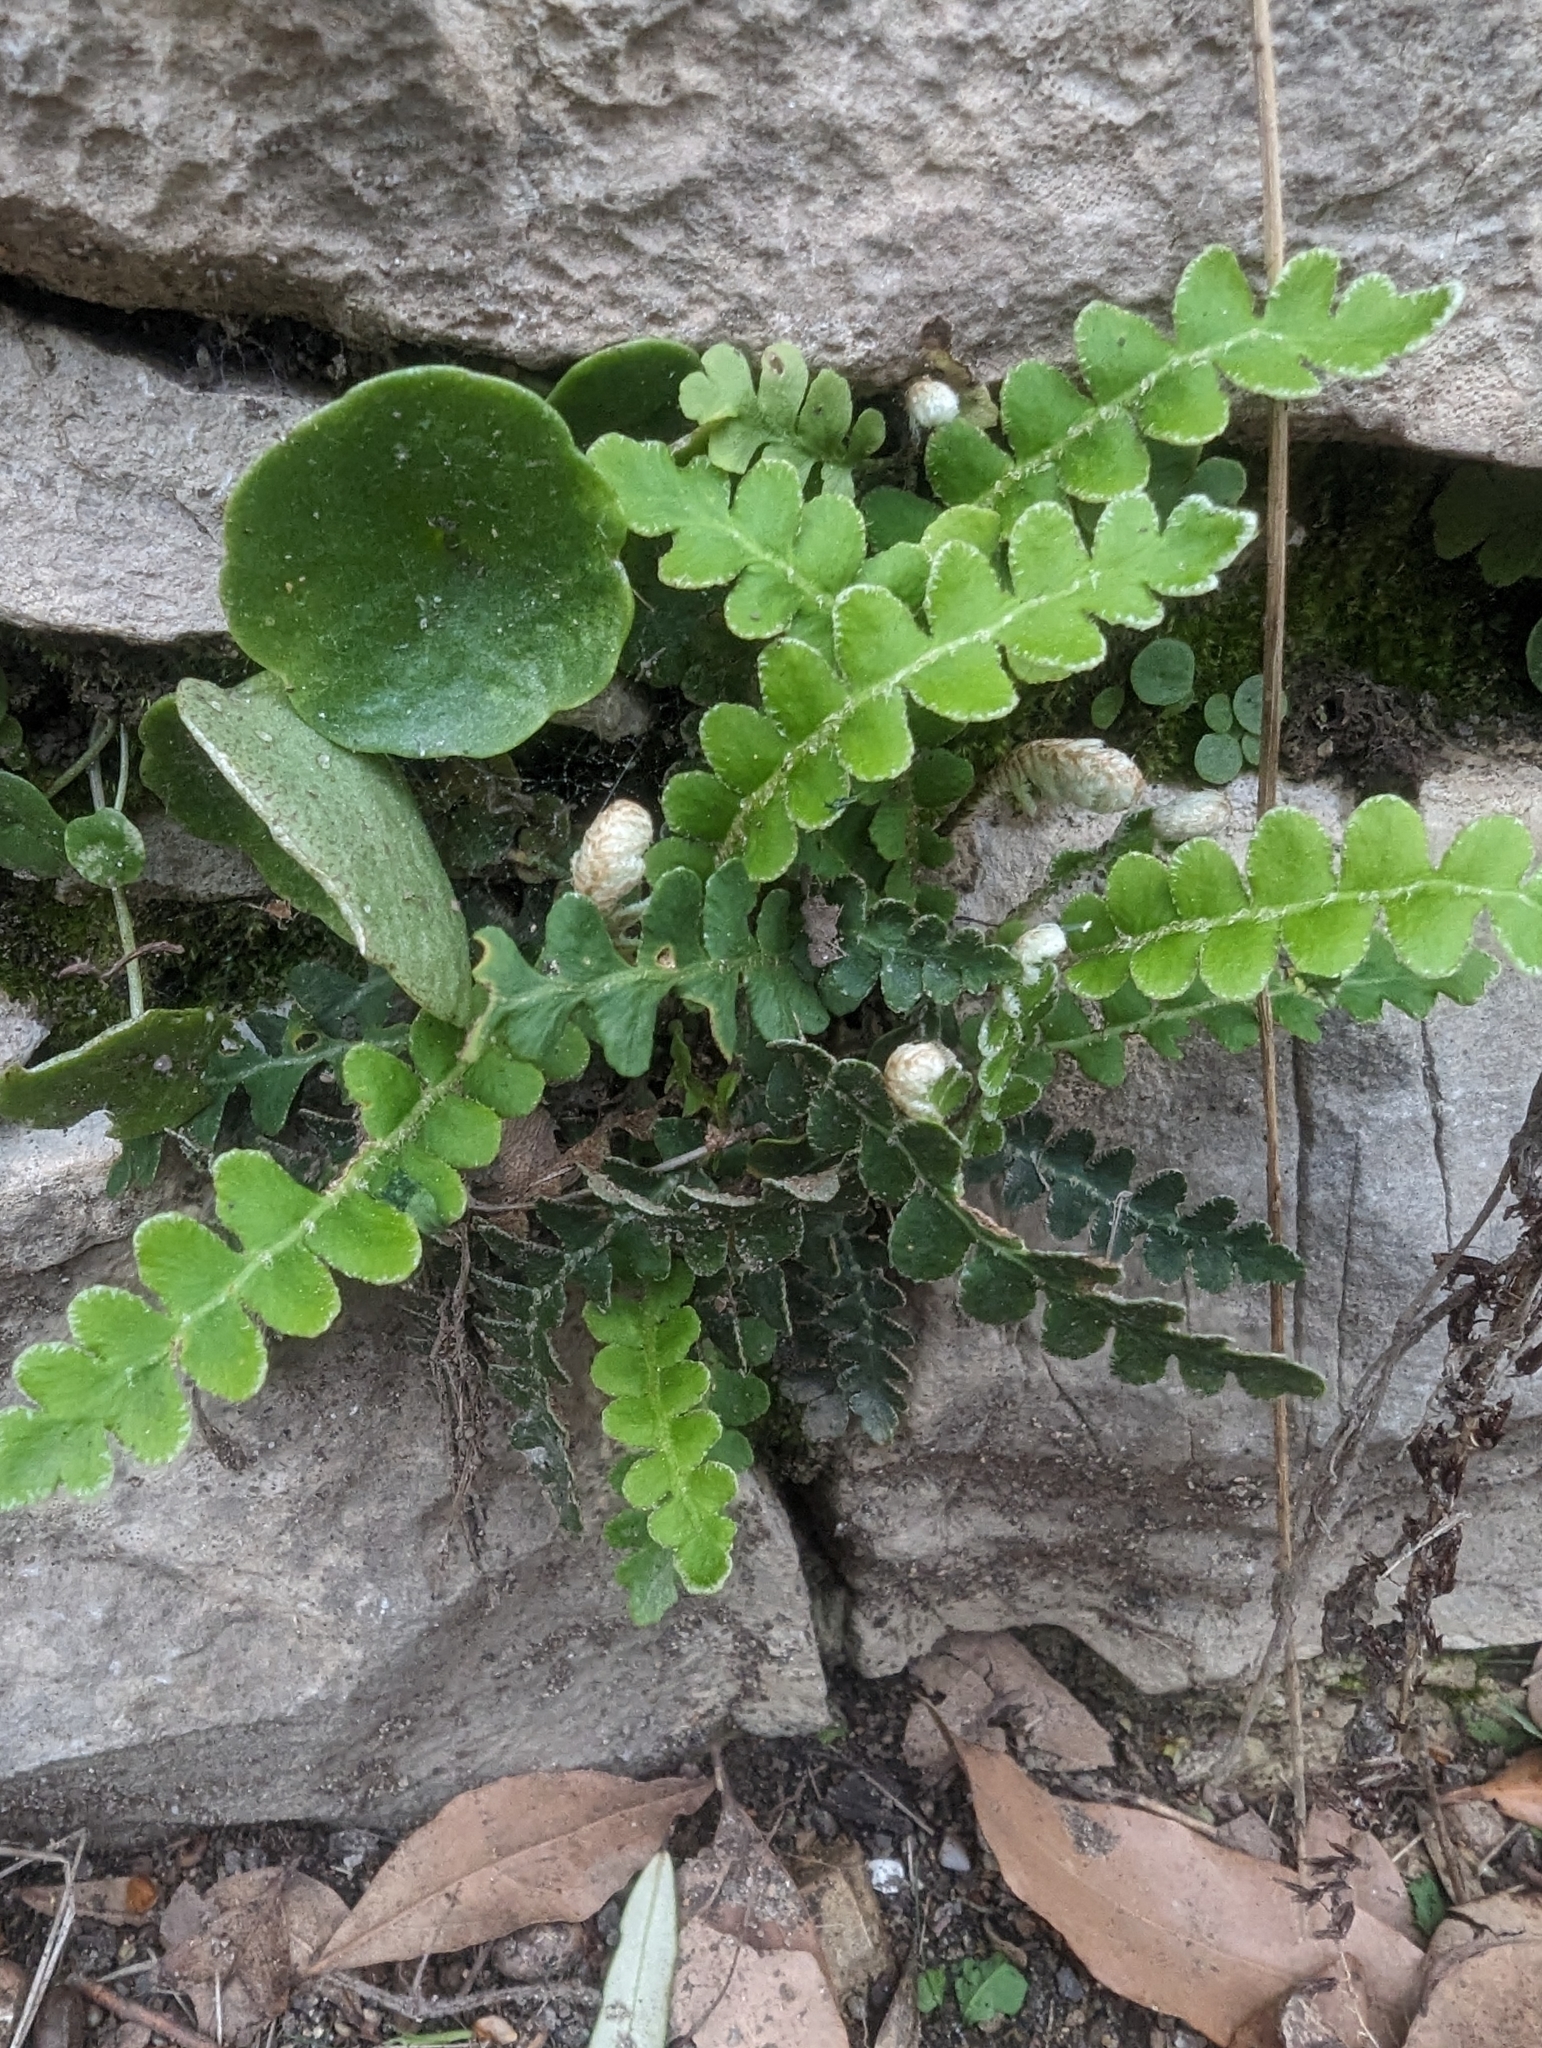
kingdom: Plantae
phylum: Tracheophyta
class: Polypodiopsida
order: Polypodiales
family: Aspleniaceae
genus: Asplenium
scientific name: Asplenium ceterach
